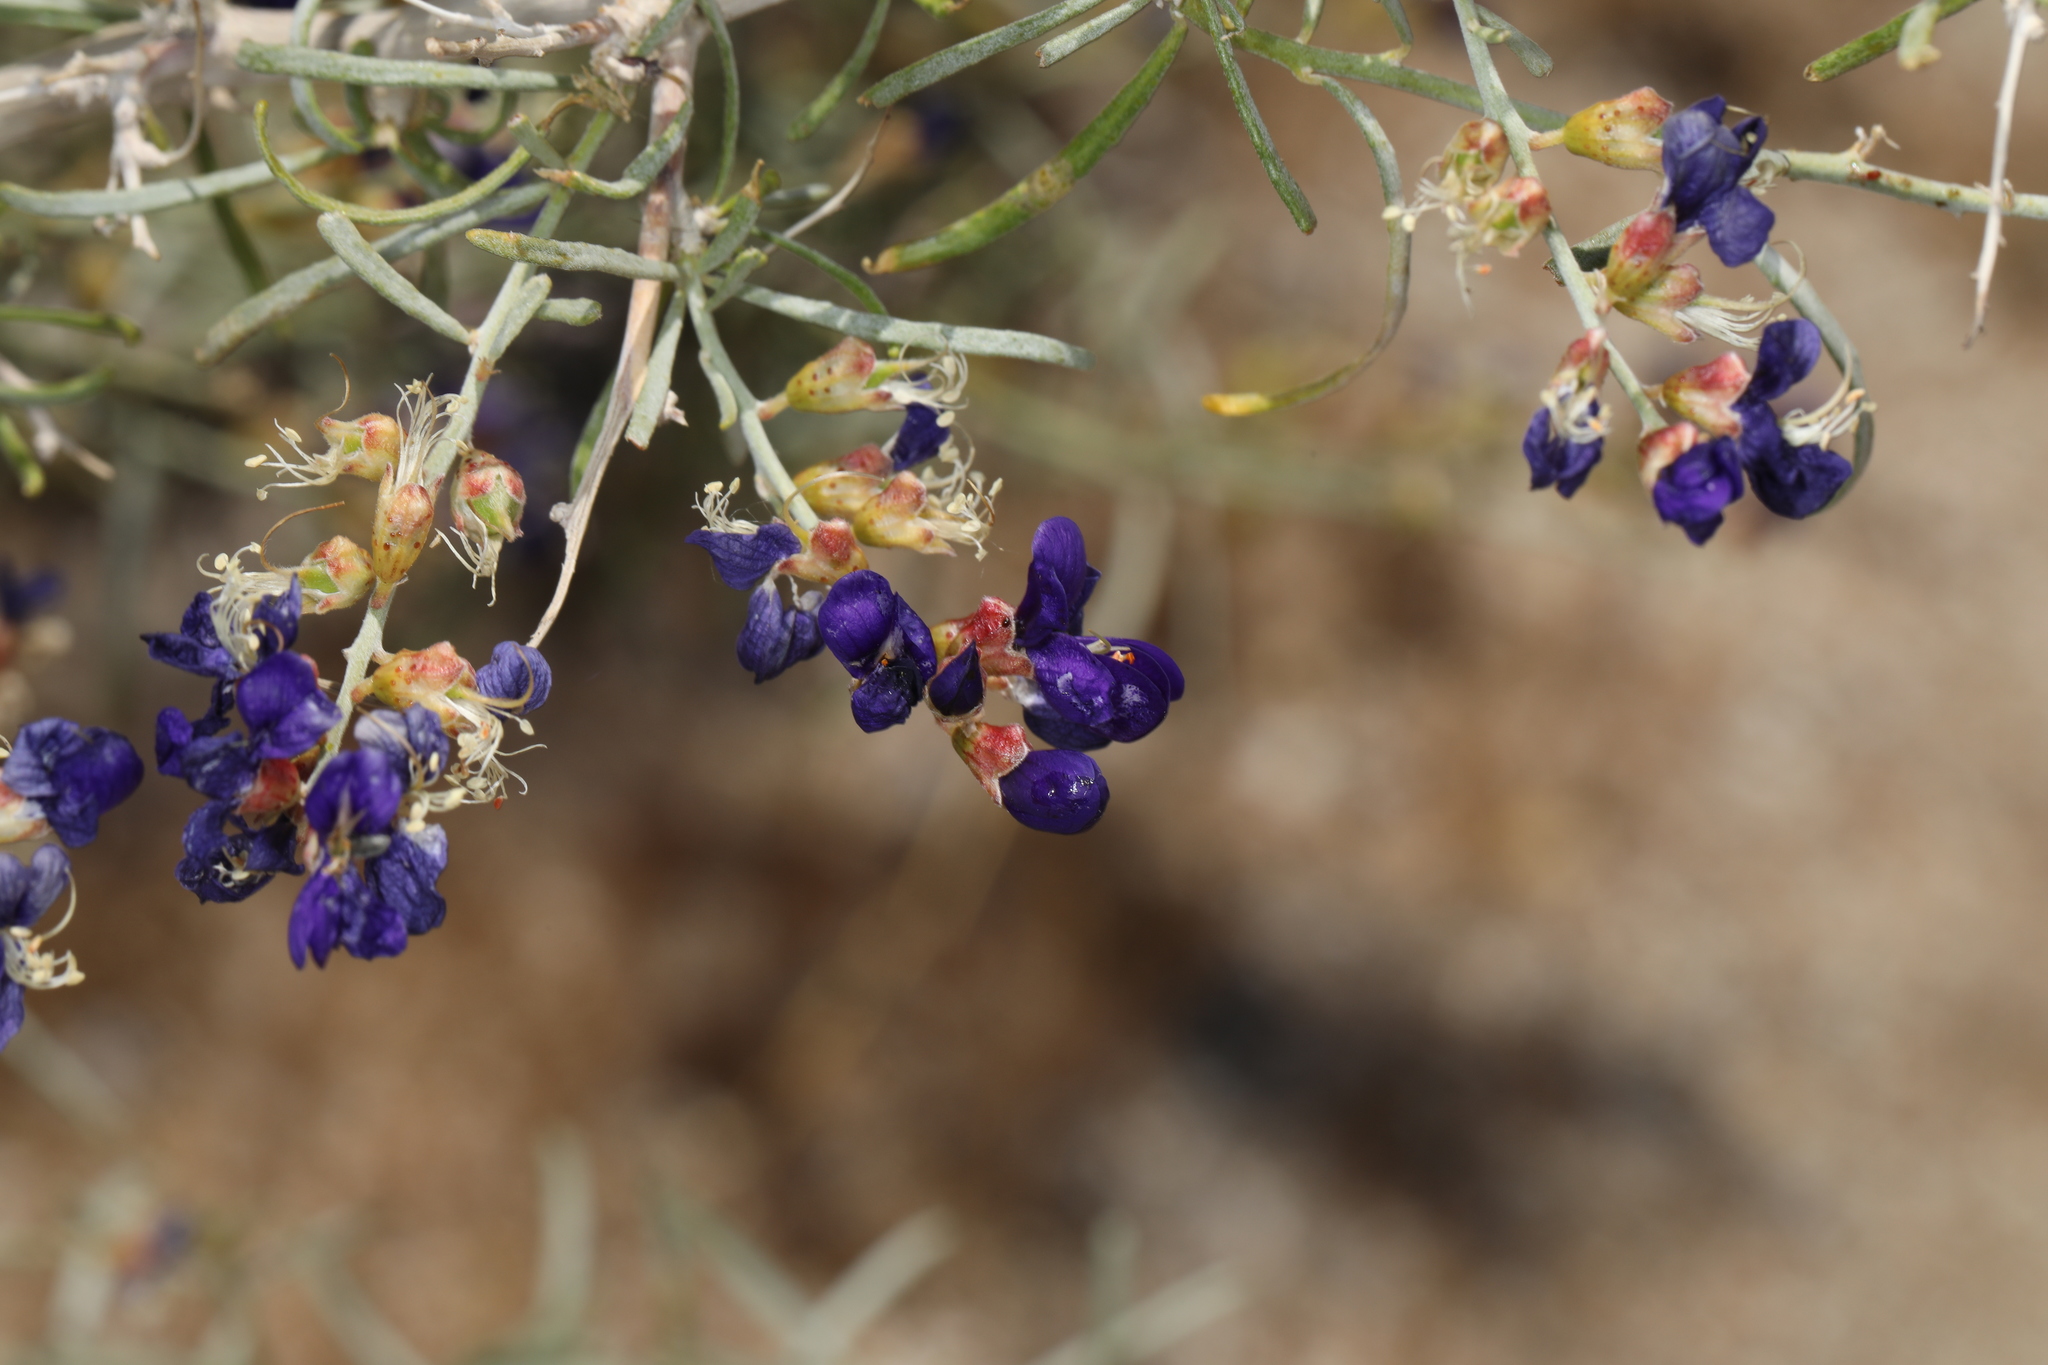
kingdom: Plantae
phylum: Tracheophyta
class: Magnoliopsida
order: Fabales
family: Fabaceae
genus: Psorothamnus
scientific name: Psorothamnus schottii
